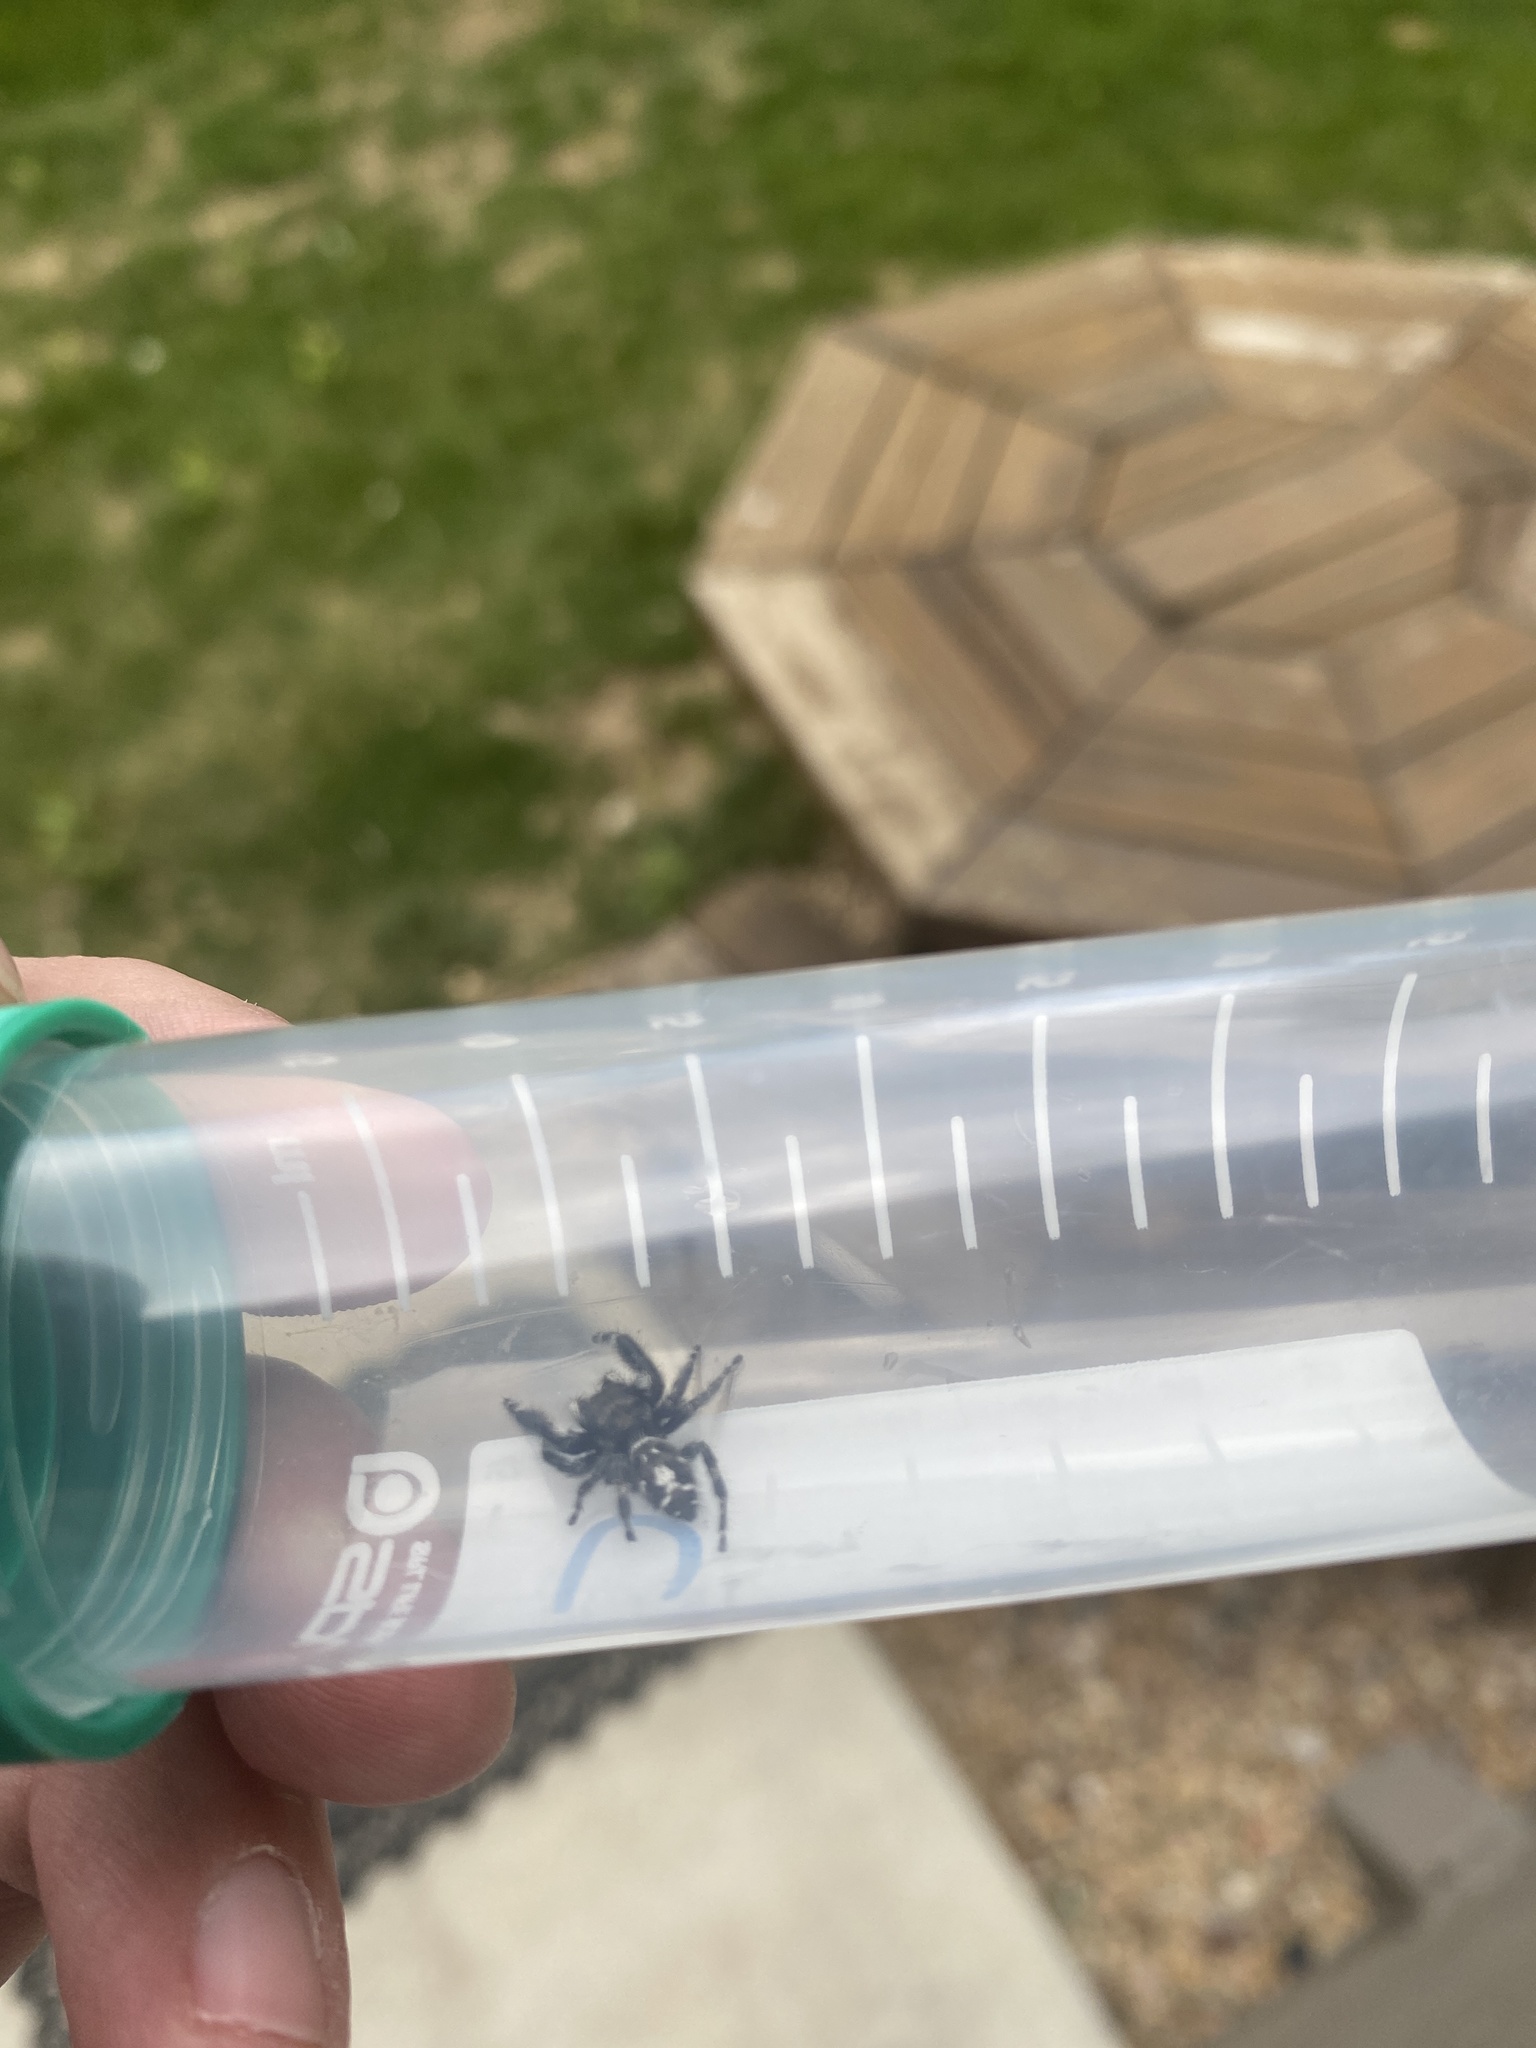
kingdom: Animalia
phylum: Arthropoda
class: Arachnida
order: Araneae
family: Salticidae
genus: Phidippus
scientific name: Phidippus audax
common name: Bold jumper
